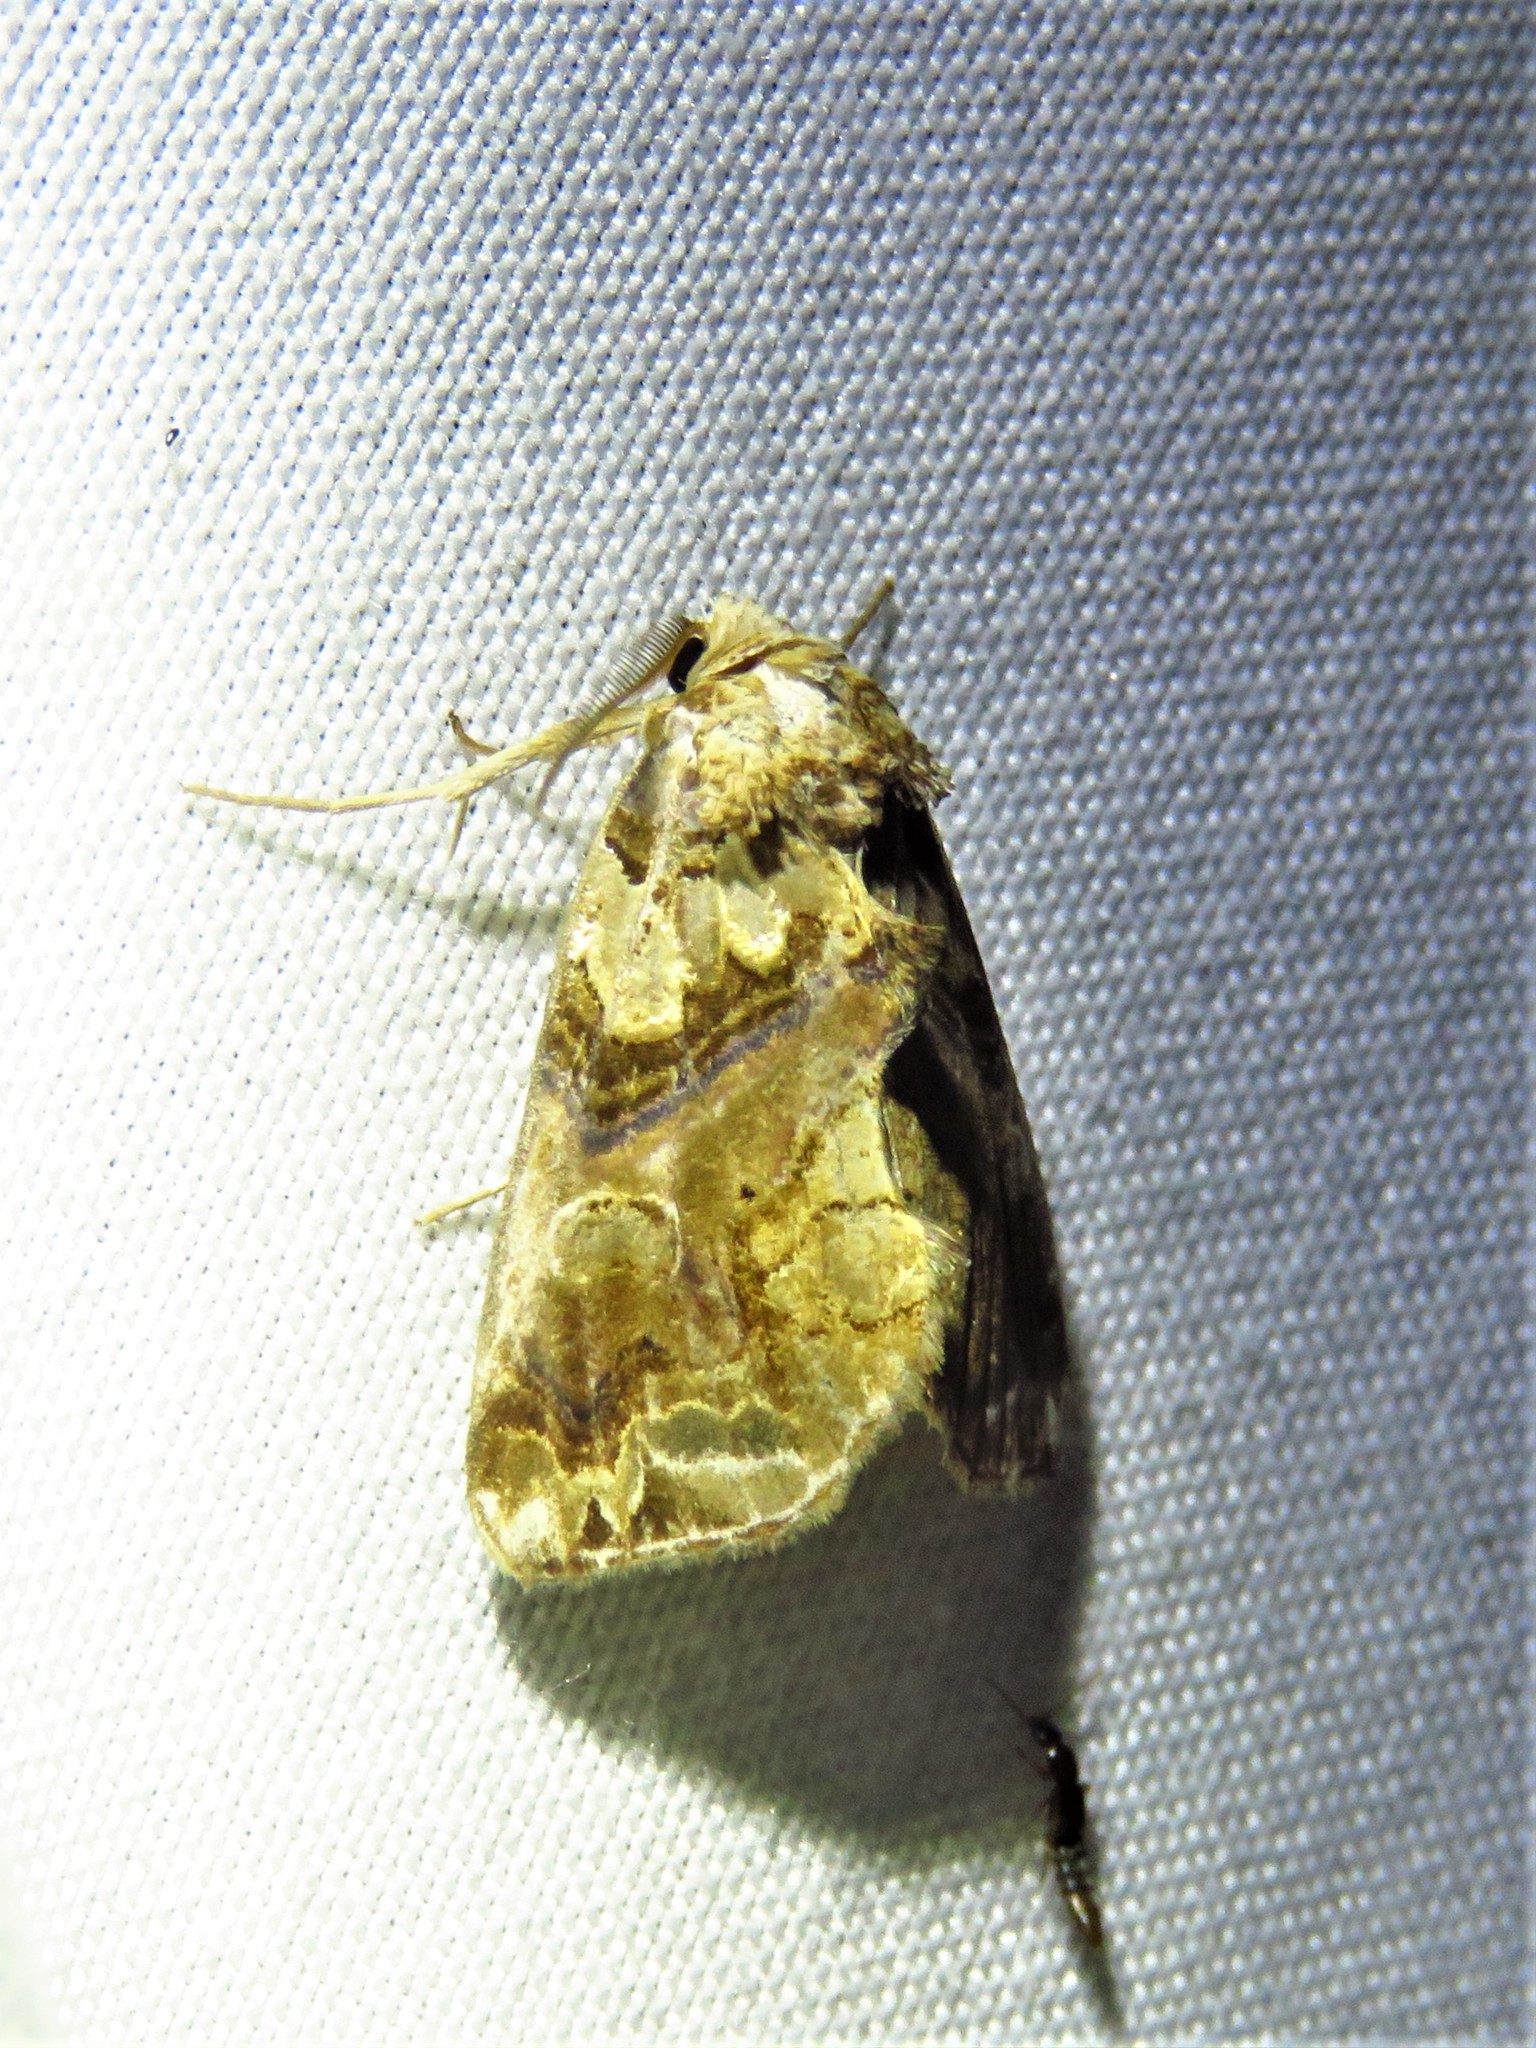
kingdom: Animalia
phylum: Arthropoda
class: Insecta
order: Lepidoptera
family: Erebidae
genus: Plusiodonta
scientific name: Plusiodonta compressipalpis
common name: Moonseed moth
